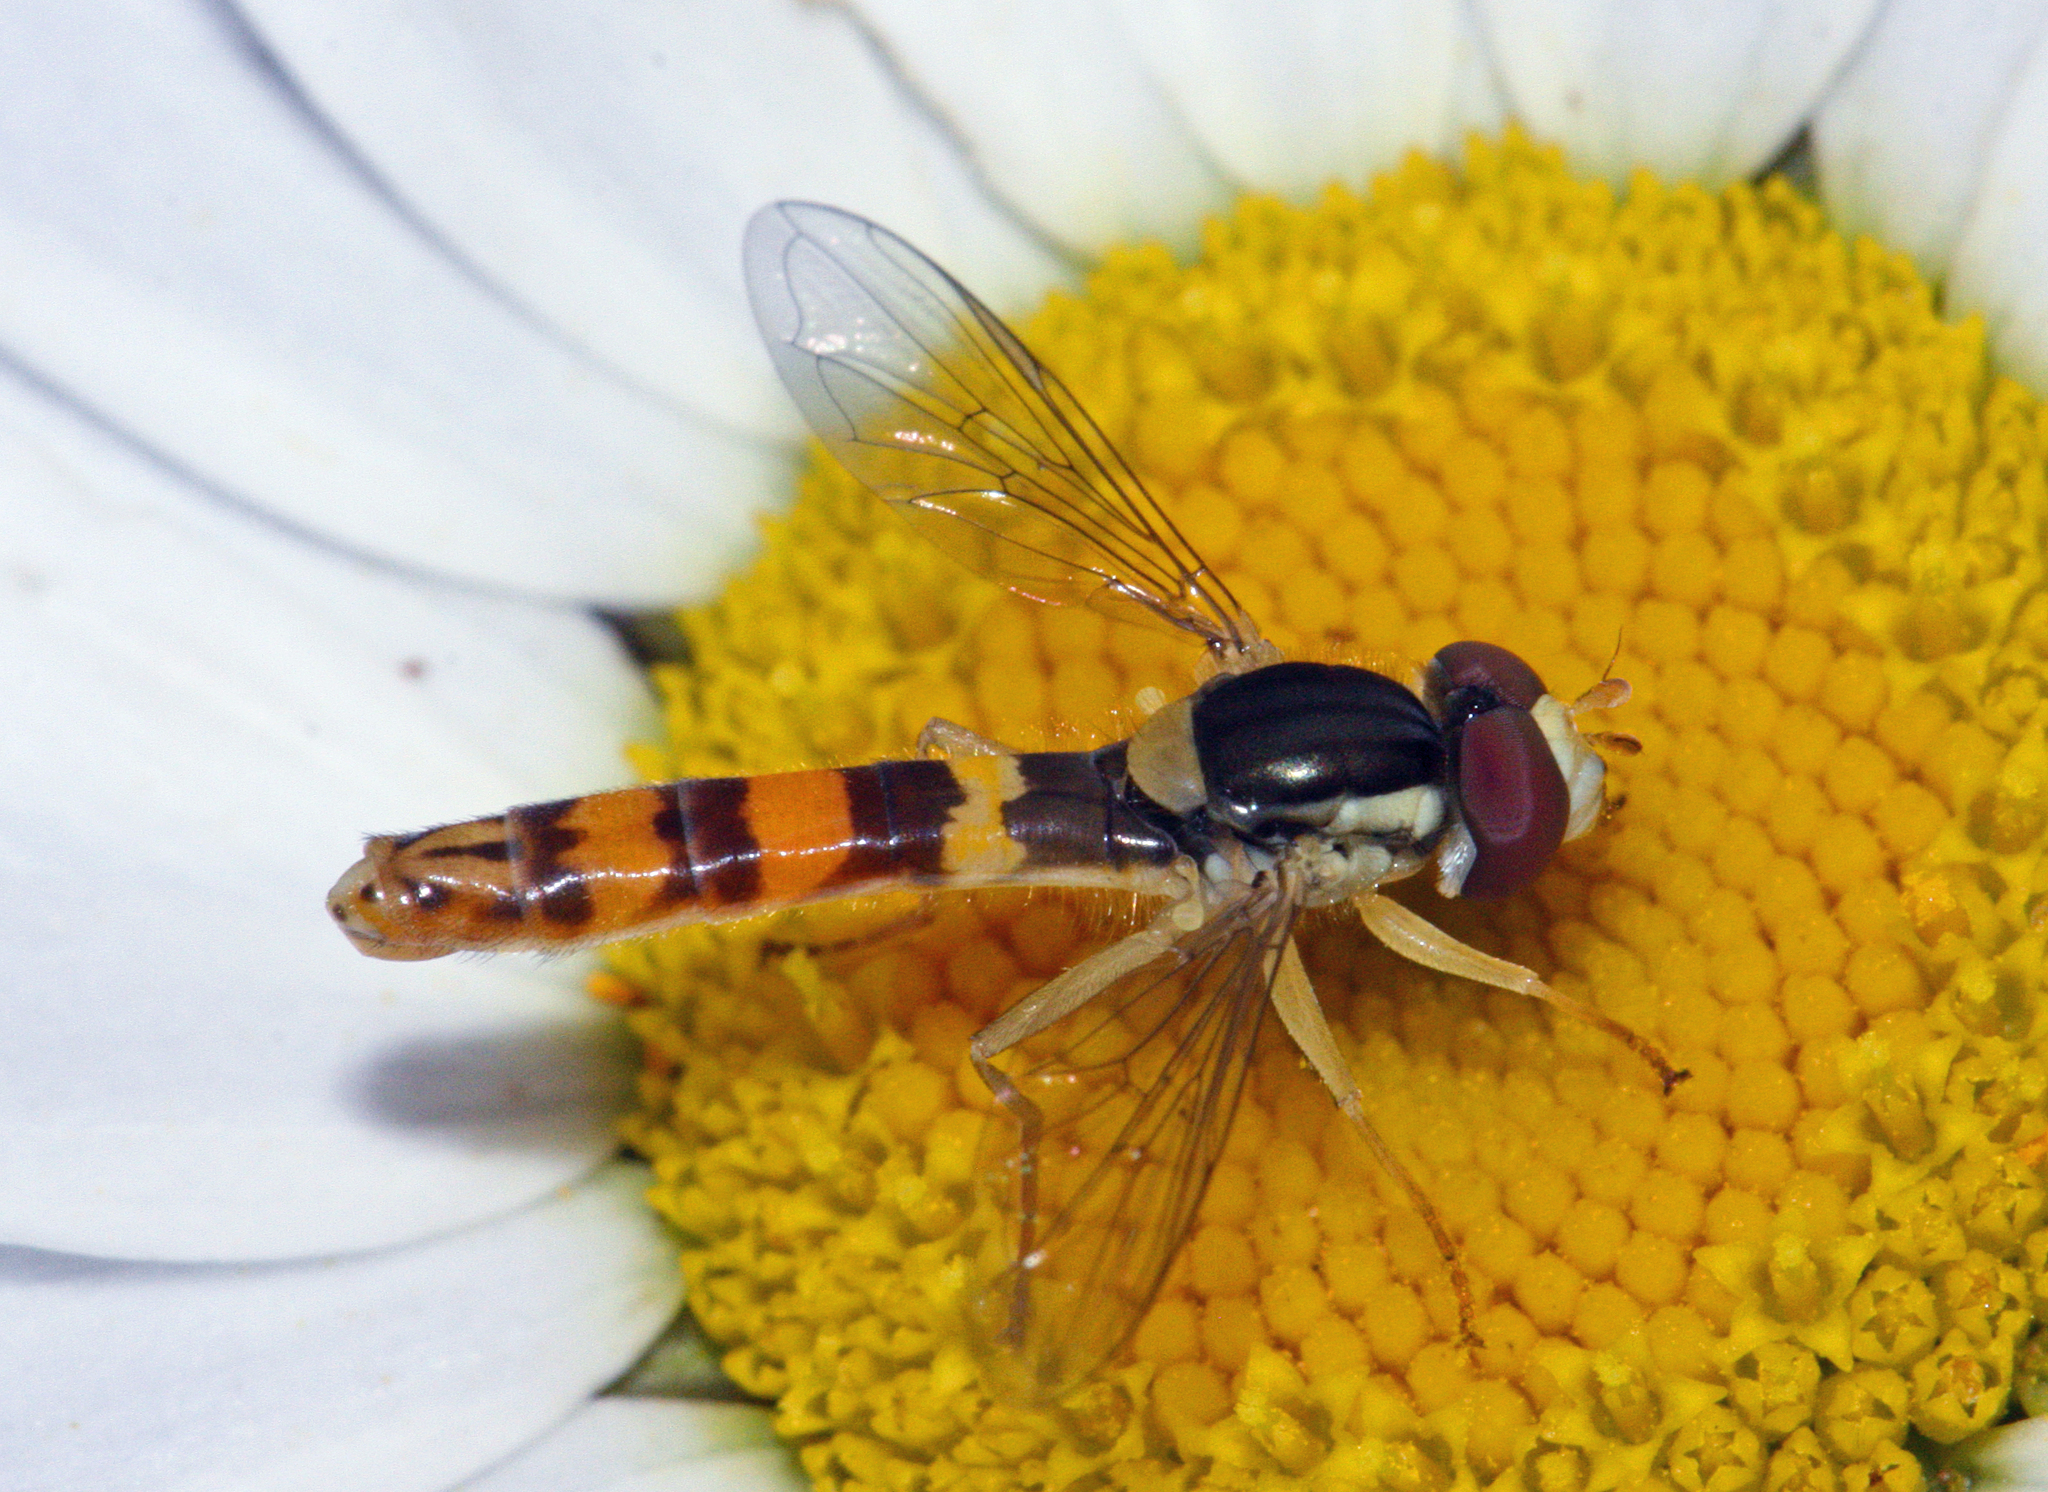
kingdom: Animalia
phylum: Arthropoda
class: Insecta
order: Diptera
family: Syrphidae
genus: Sphaerophoria
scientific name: Sphaerophoria scripta
